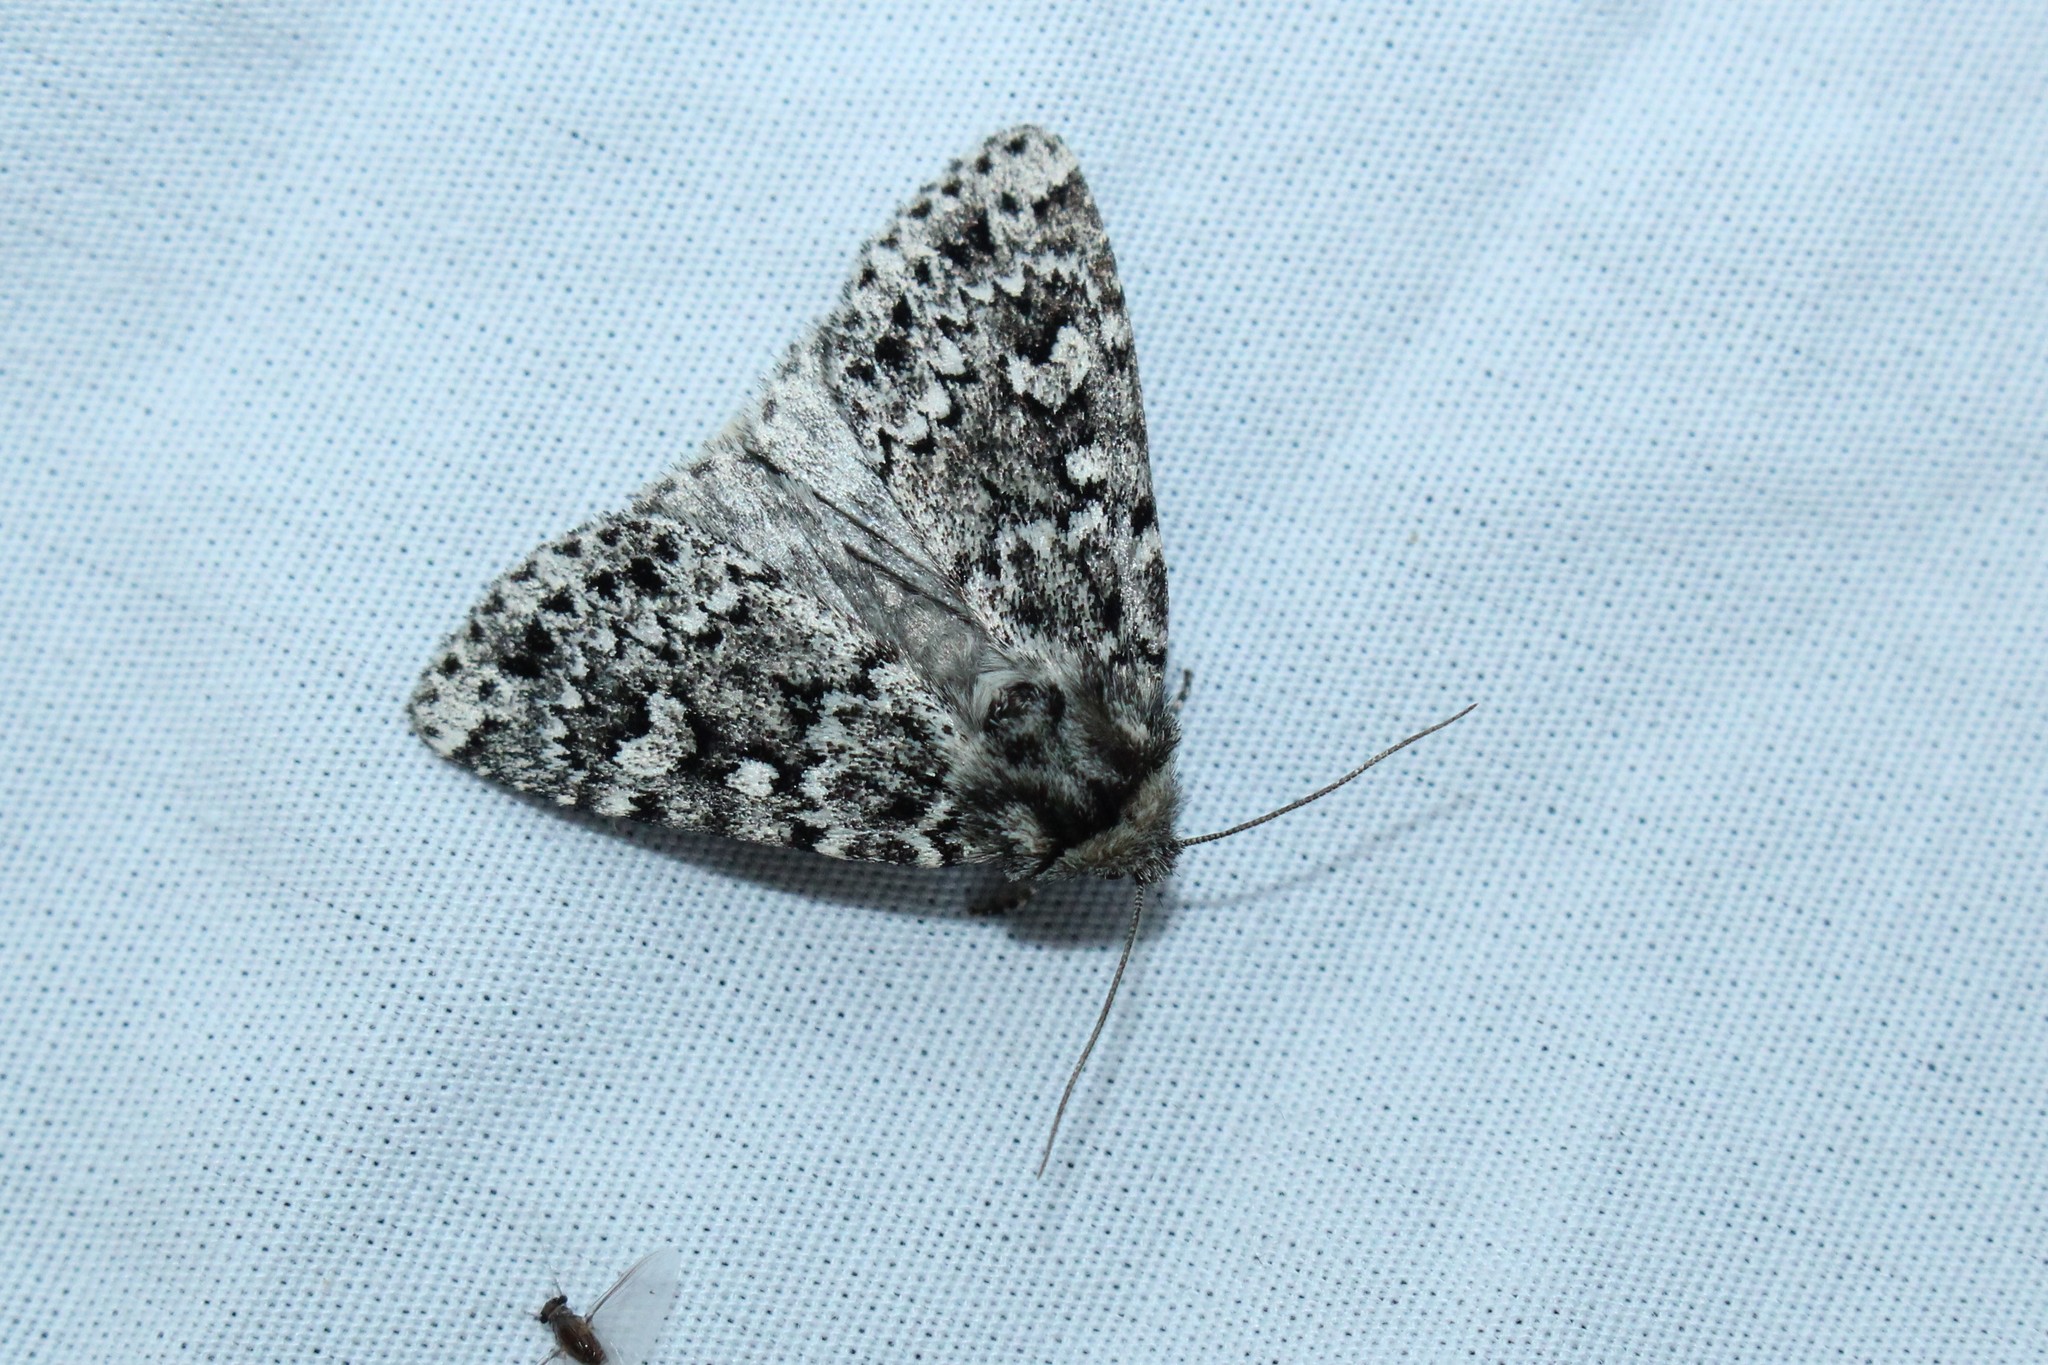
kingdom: Animalia
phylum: Arthropoda
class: Insecta
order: Lepidoptera
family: Noctuidae
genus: Xestia
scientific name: Xestia perquiritata
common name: Boomerang dart
